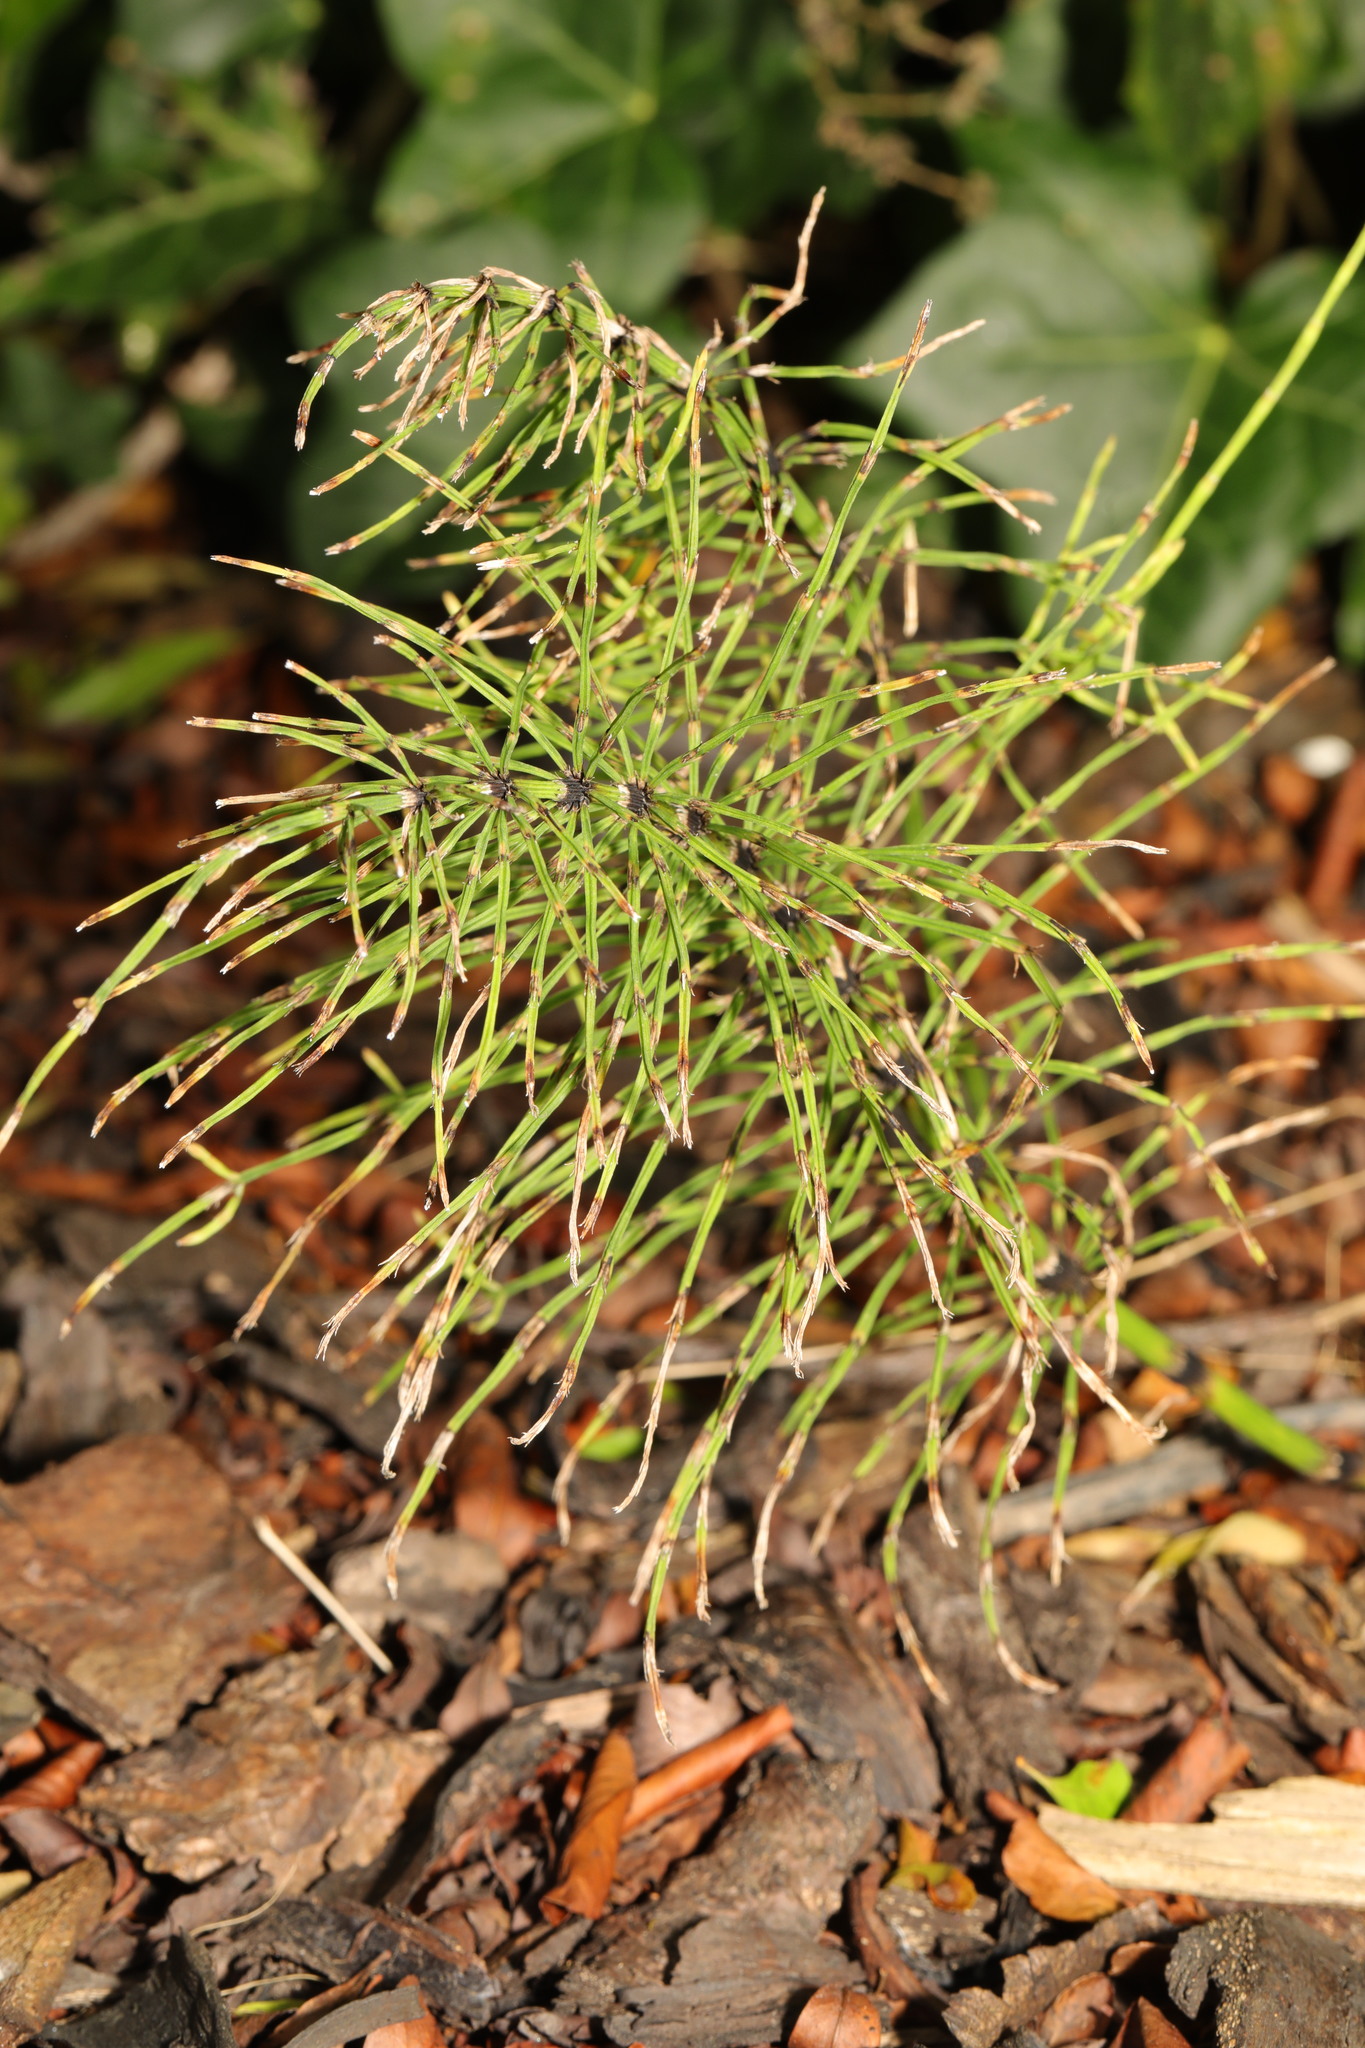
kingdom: Plantae
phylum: Tracheophyta
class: Polypodiopsida
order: Equisetales
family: Equisetaceae
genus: Equisetum
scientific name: Equisetum arvense
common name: Field horsetail
